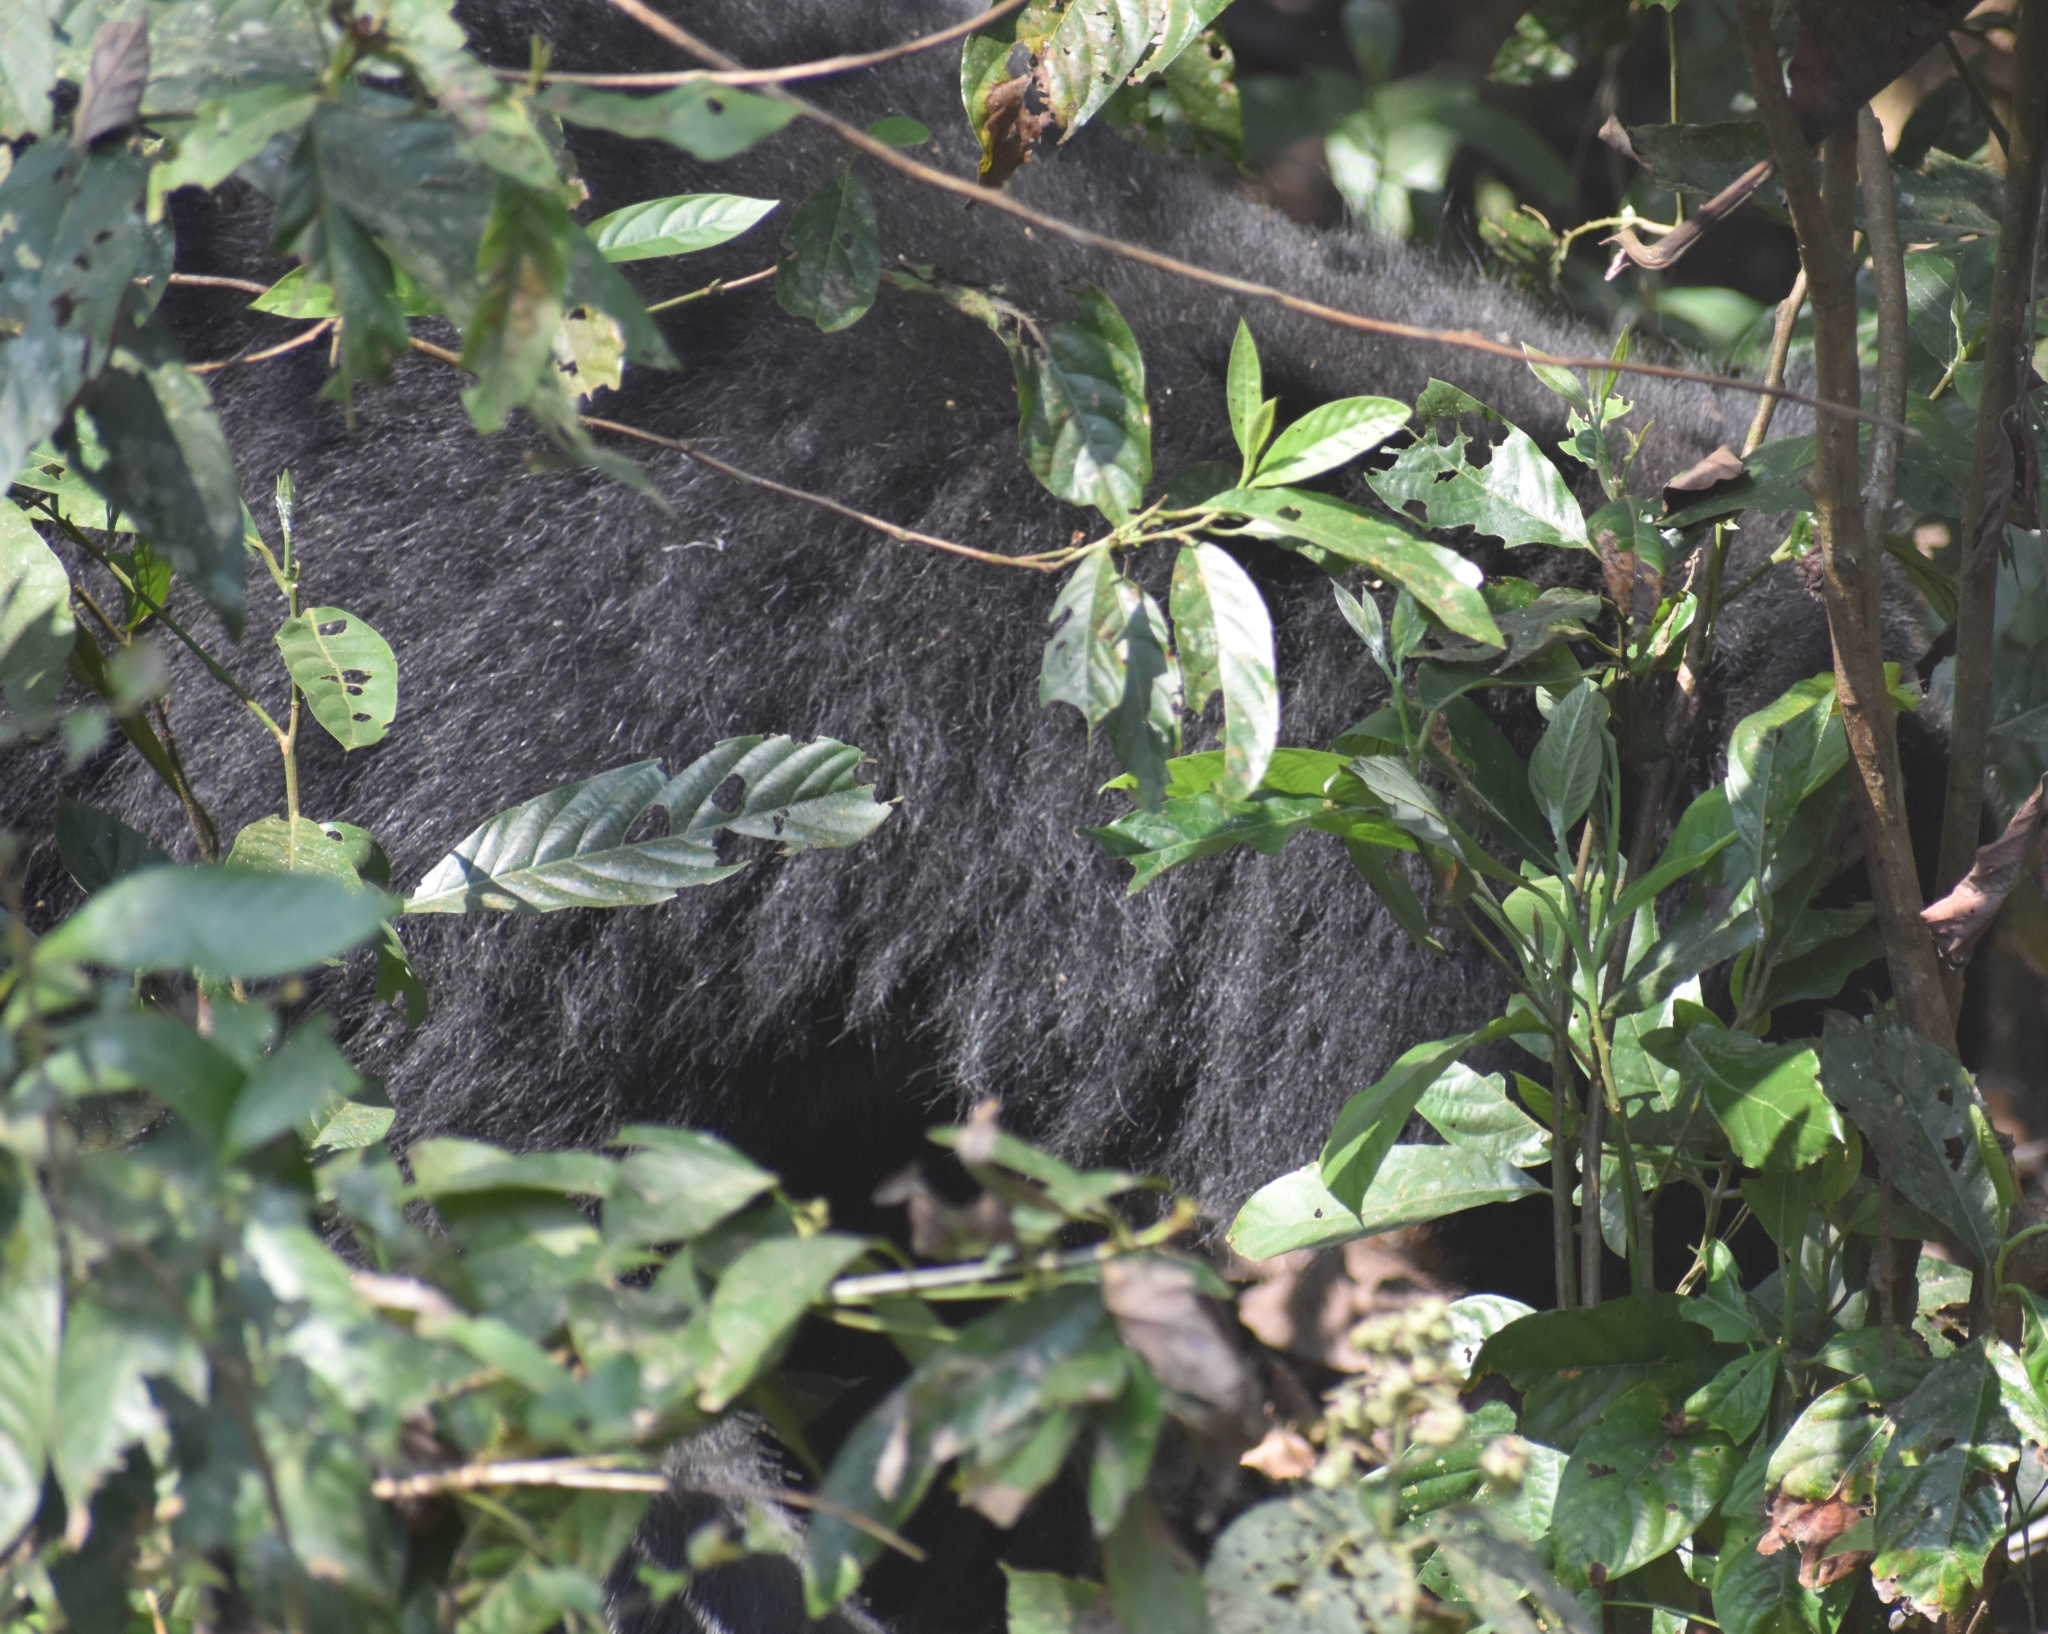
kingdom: Animalia
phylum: Chordata
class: Mammalia
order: Carnivora
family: Ursidae
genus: Melursus
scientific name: Melursus ursinus
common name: Sloth bear
